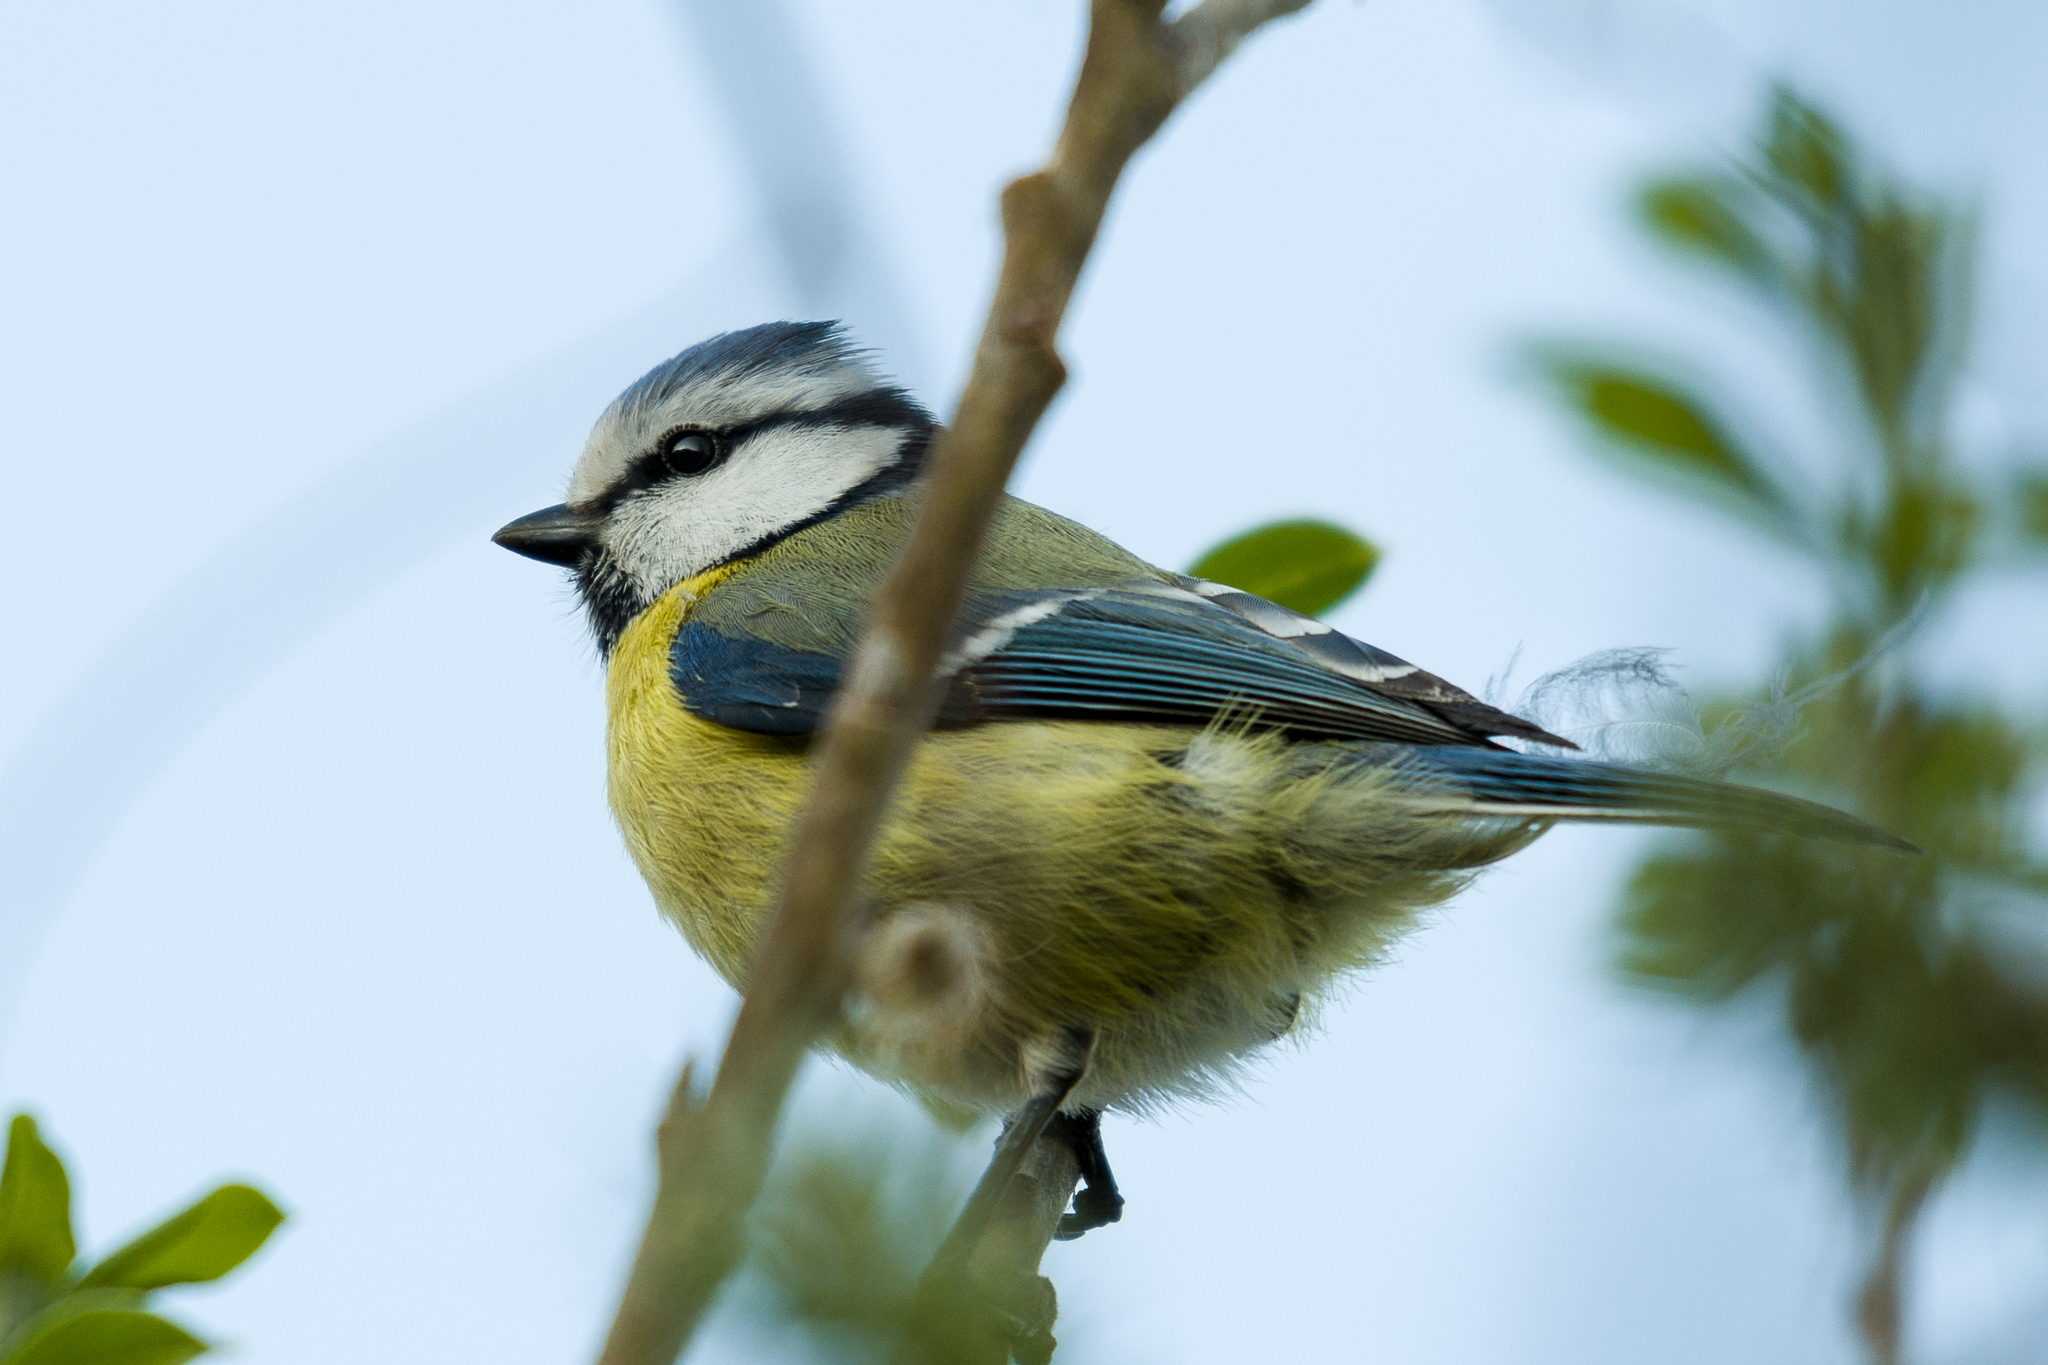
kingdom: Animalia
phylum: Chordata
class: Aves
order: Passeriformes
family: Paridae
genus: Cyanistes
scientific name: Cyanistes caeruleus
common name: Eurasian blue tit
